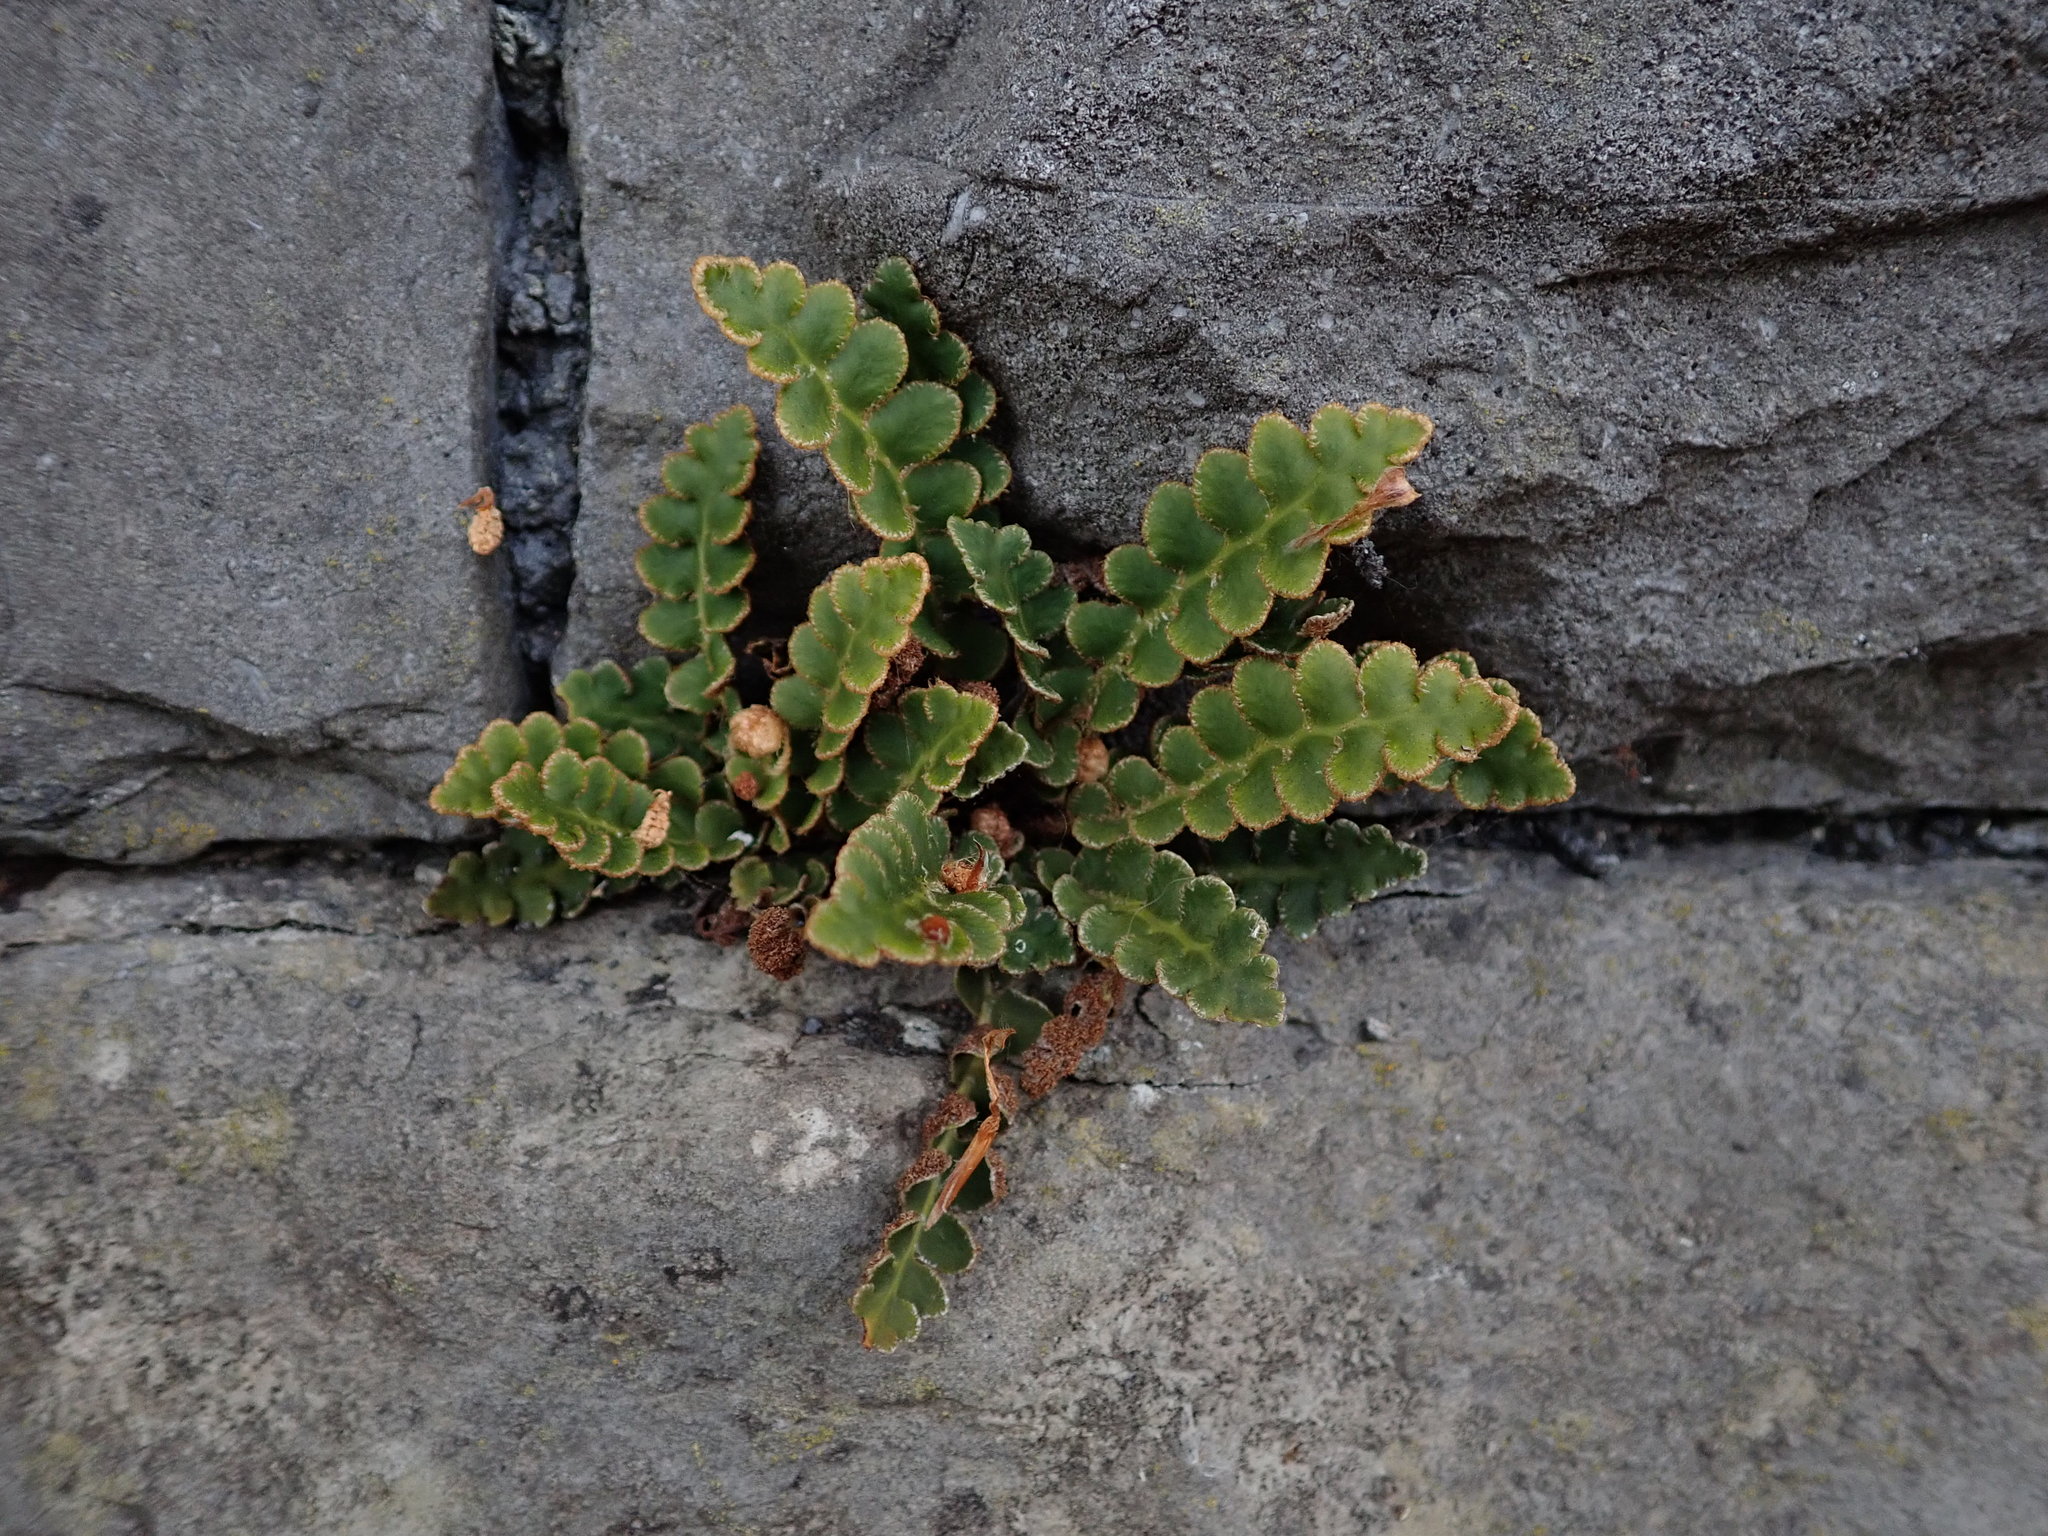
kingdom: Plantae
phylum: Tracheophyta
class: Polypodiopsida
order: Polypodiales
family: Aspleniaceae
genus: Asplenium
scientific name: Asplenium ceterach
